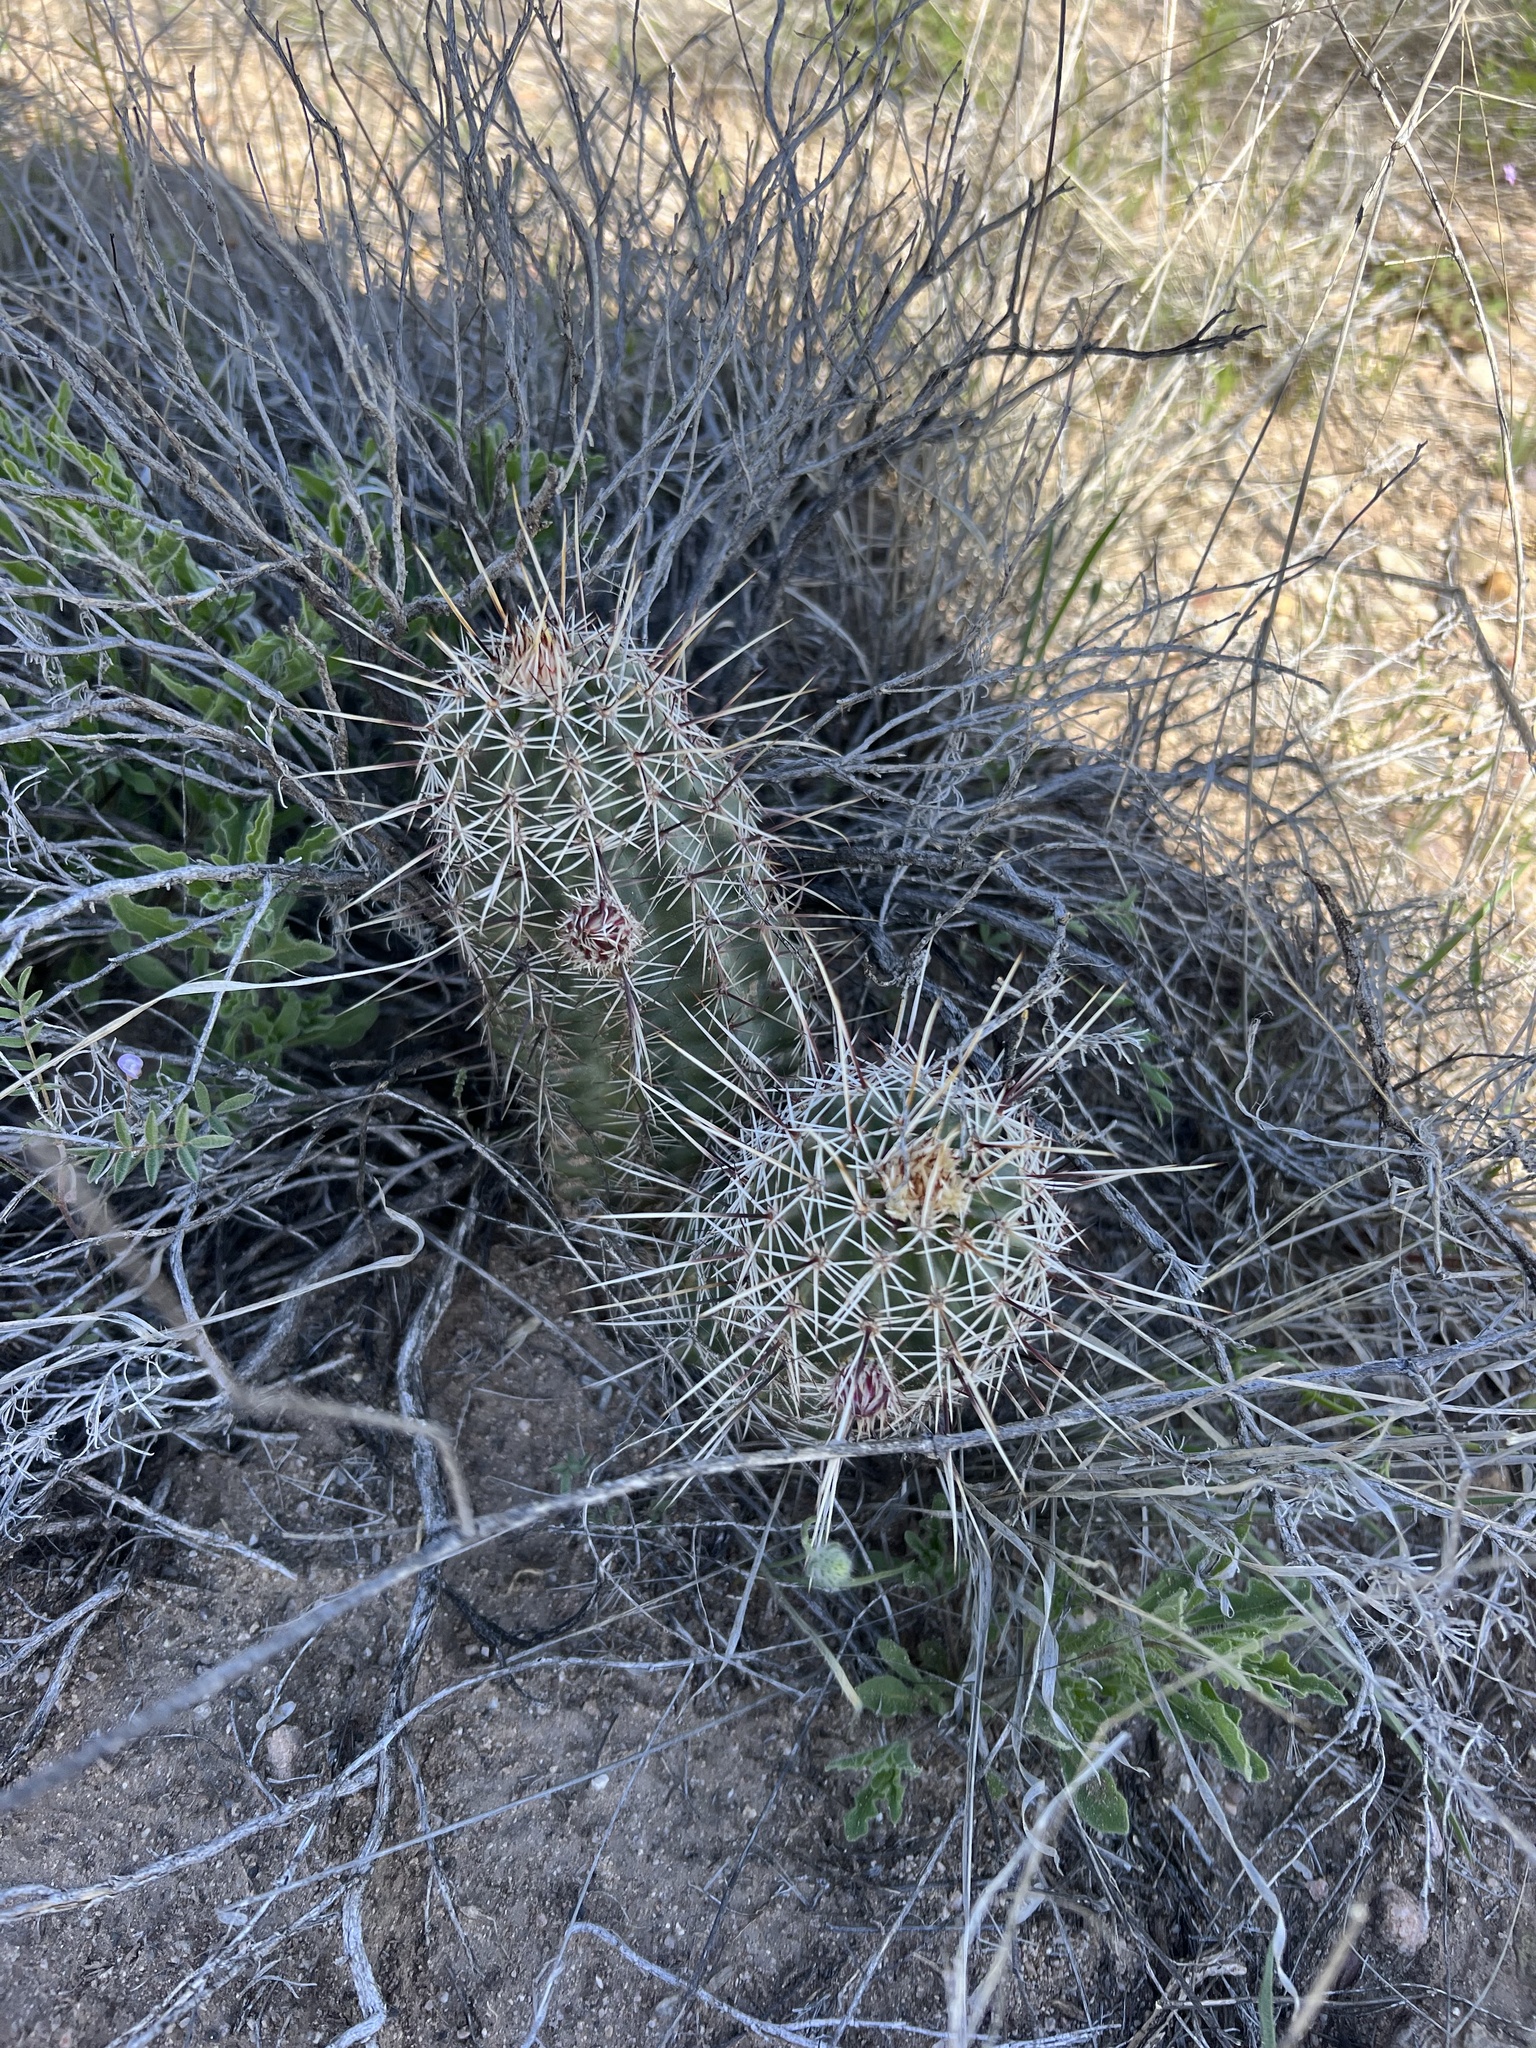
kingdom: Plantae
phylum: Tracheophyta
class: Magnoliopsida
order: Caryophyllales
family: Cactaceae
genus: Echinocereus
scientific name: Echinocereus fasciculatus
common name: Bundle hedgehog
